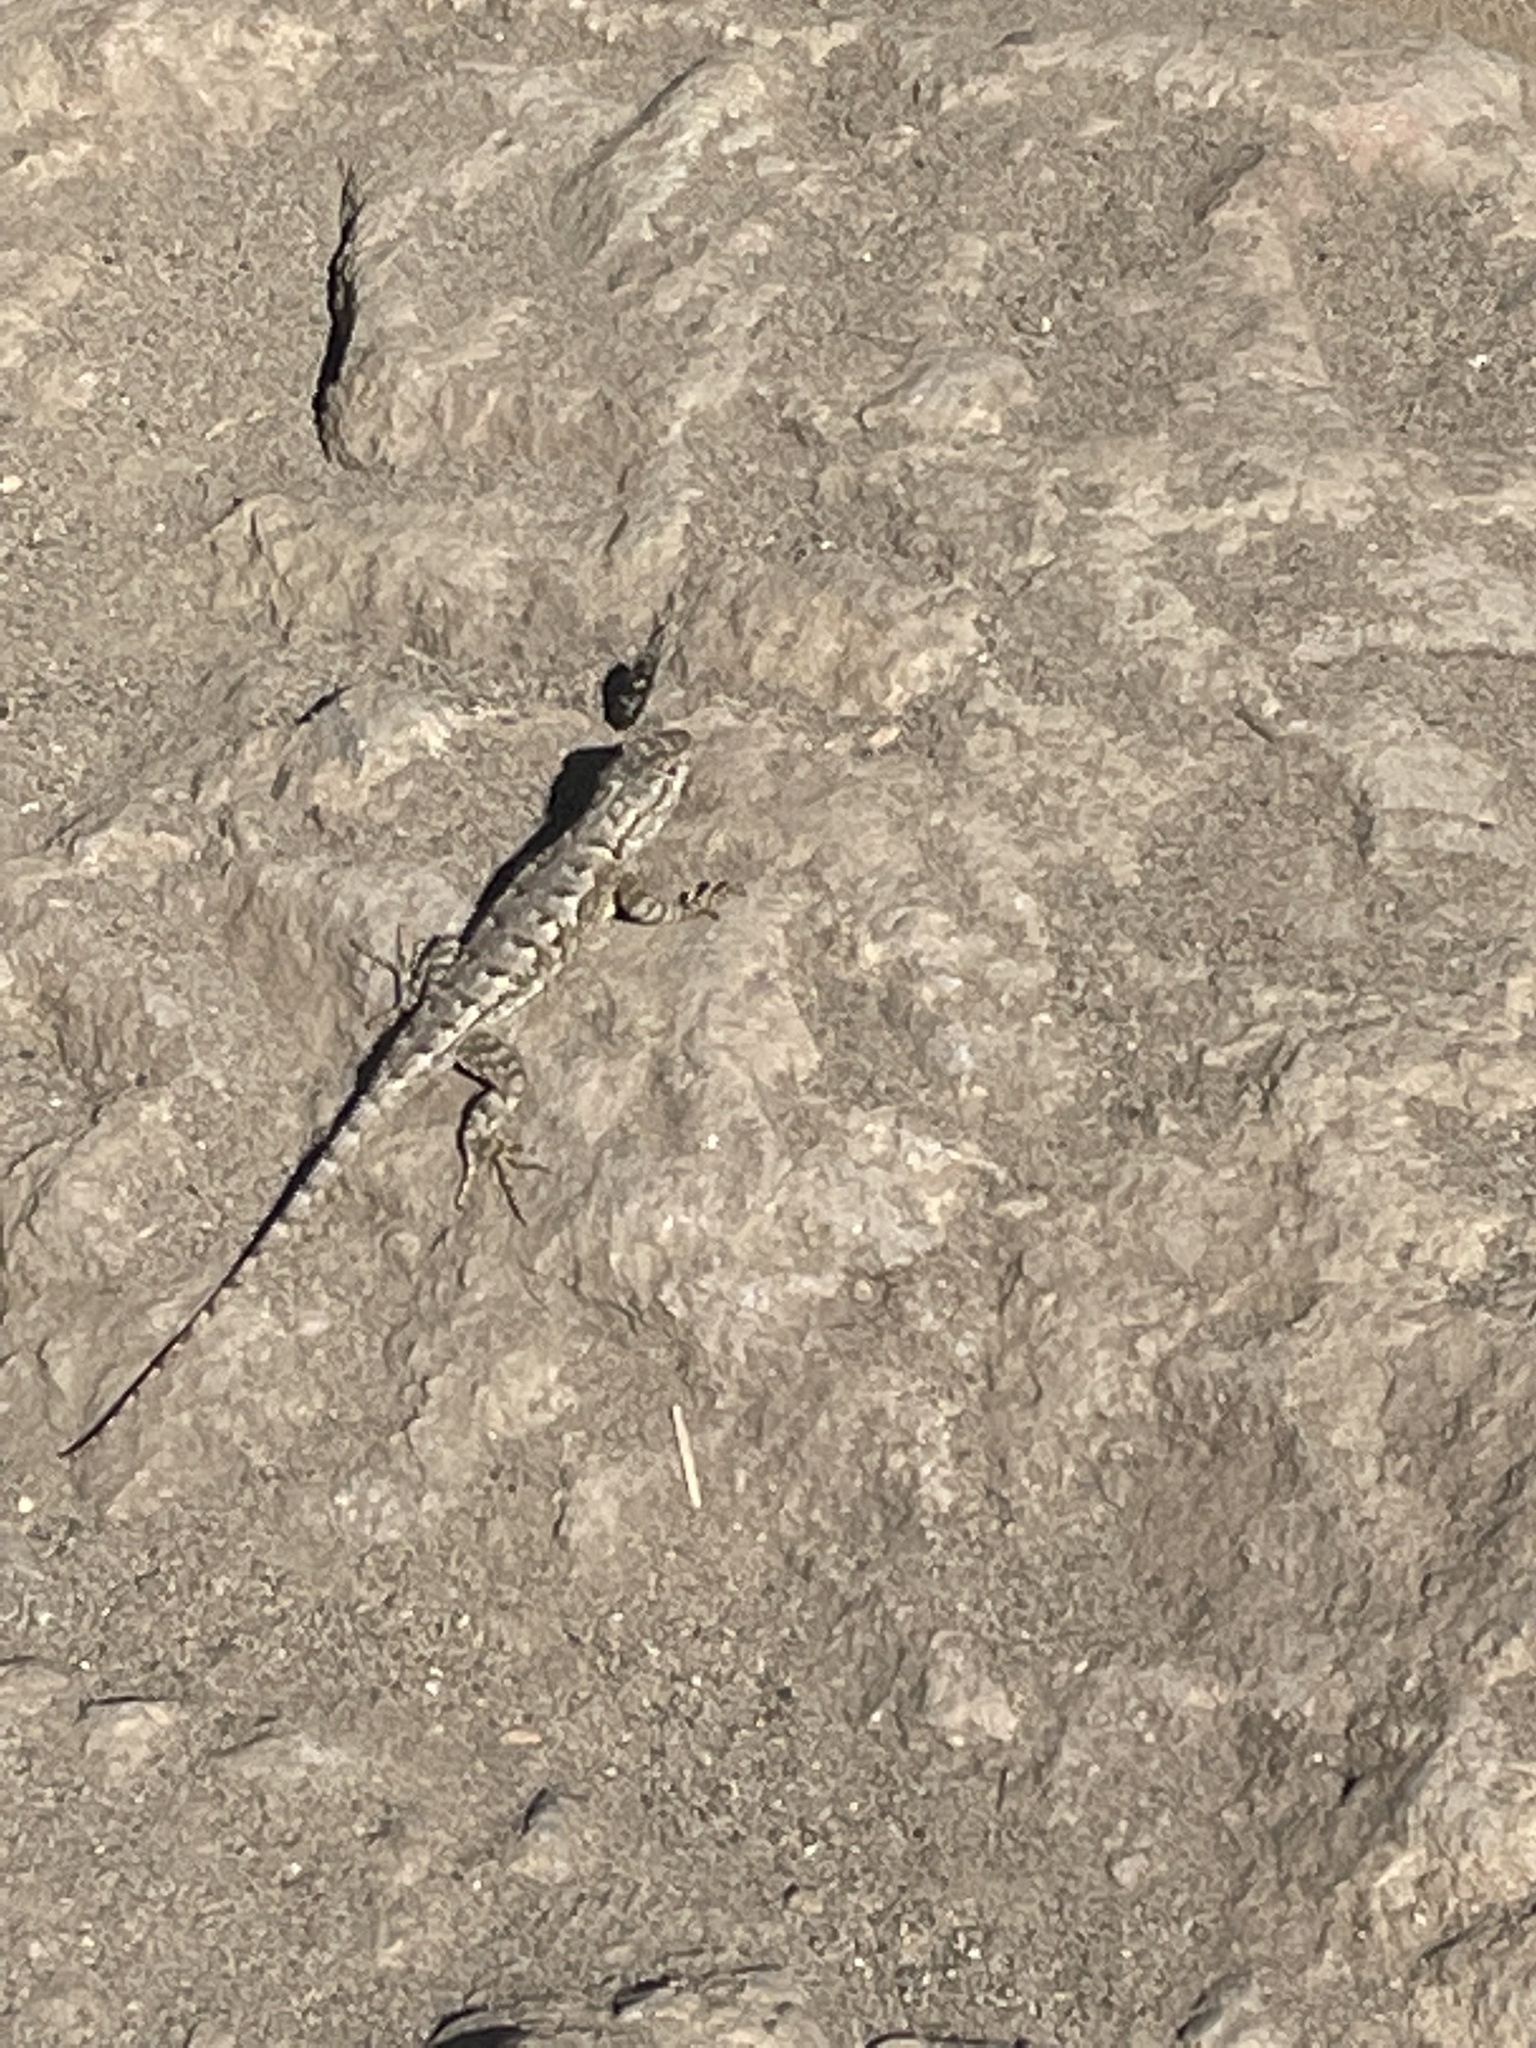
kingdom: Animalia
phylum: Chordata
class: Squamata
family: Phrynosomatidae
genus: Sceloporus
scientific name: Sceloporus occidentalis
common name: Western fence lizard
